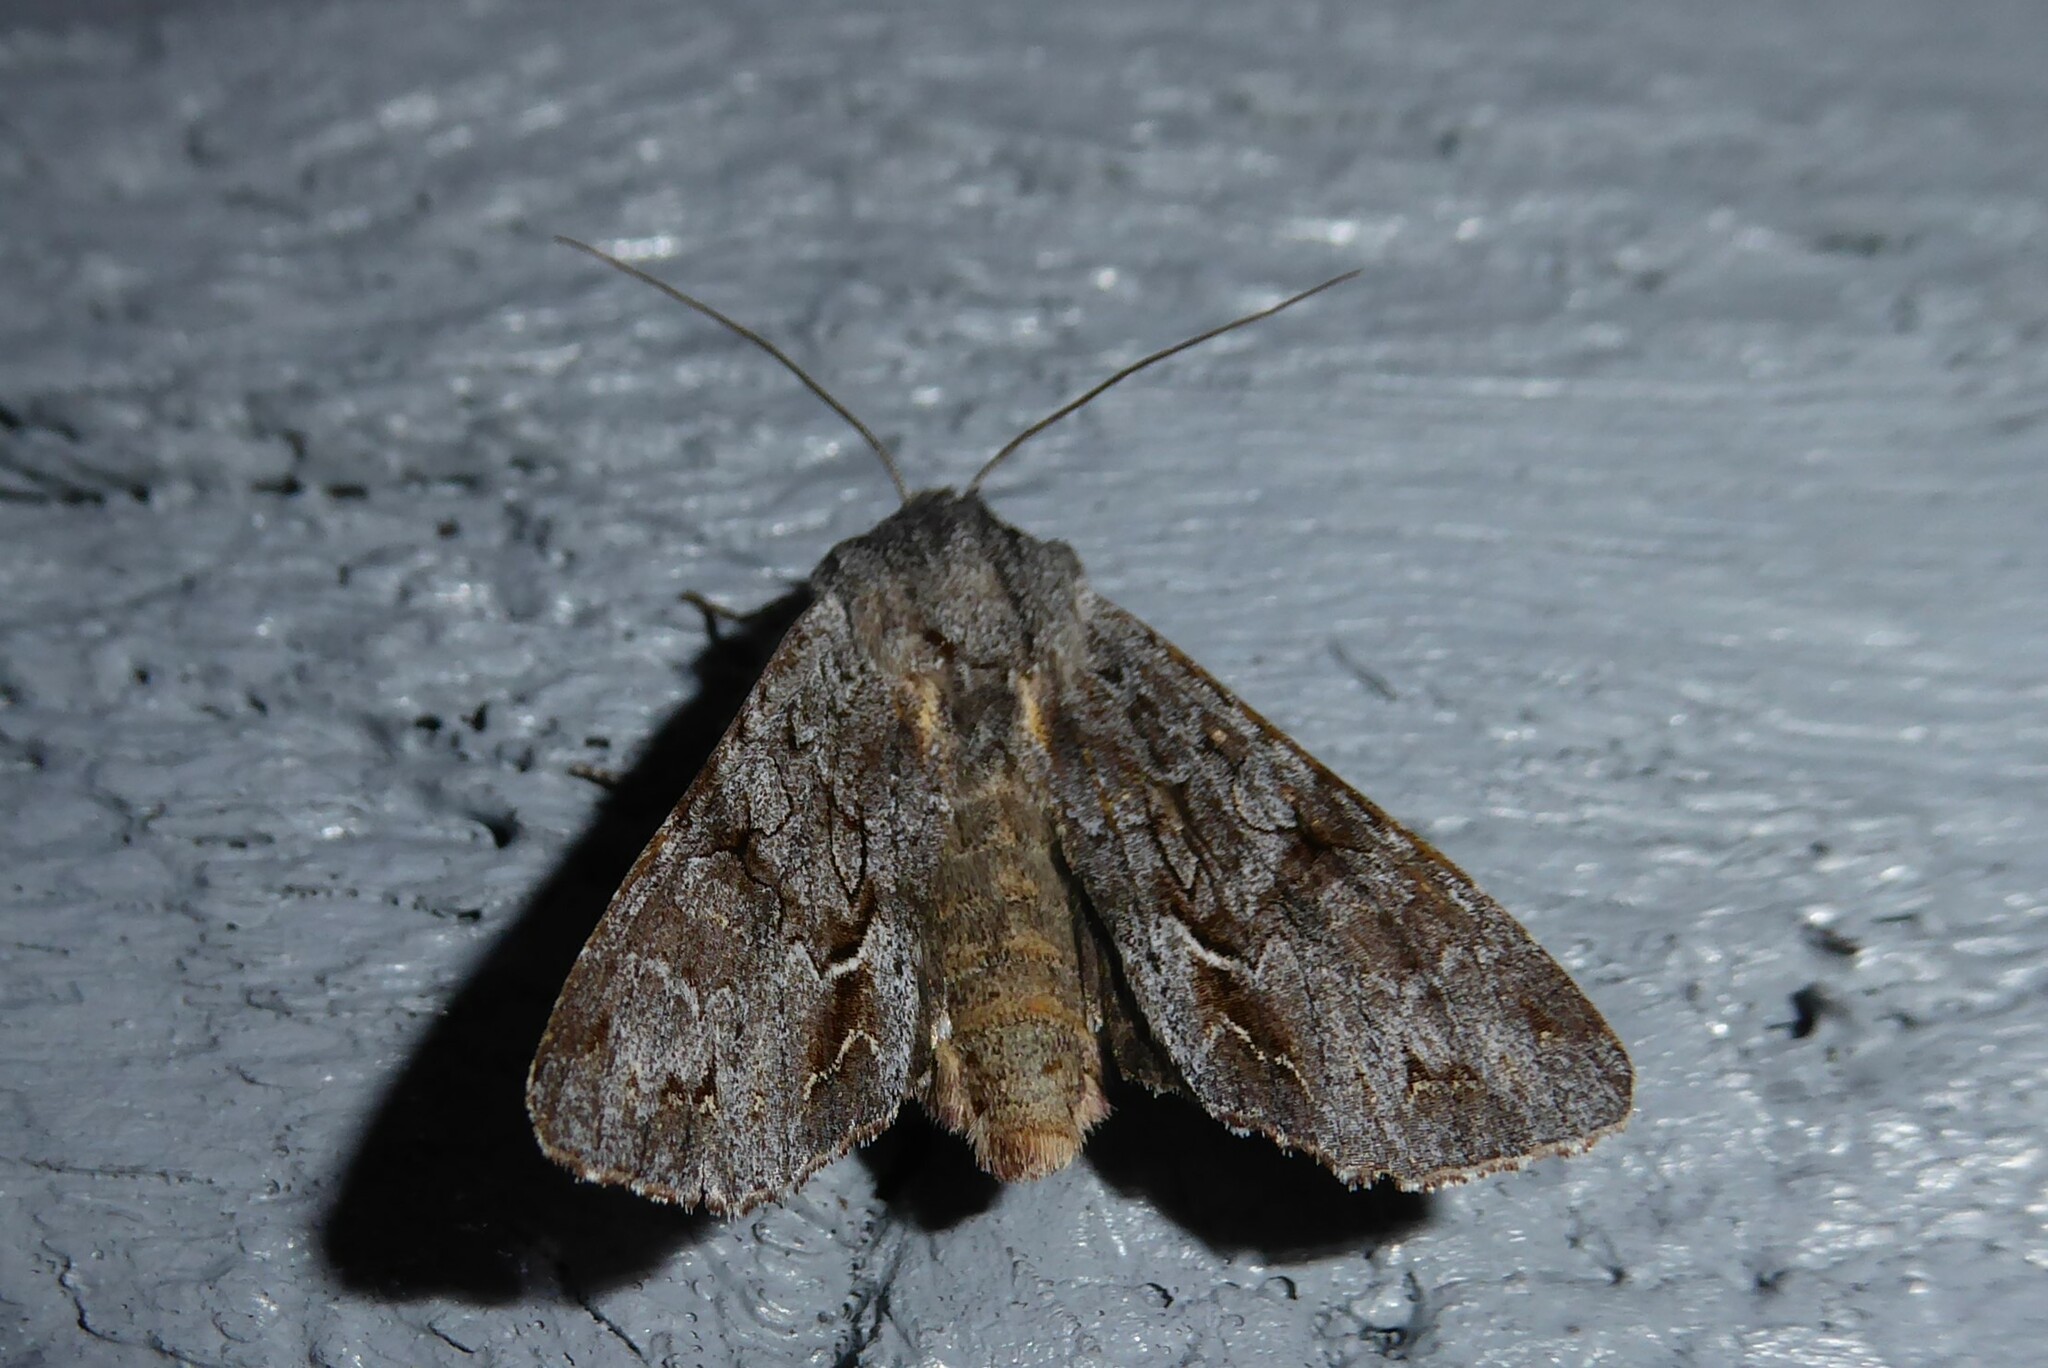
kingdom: Animalia
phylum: Arthropoda
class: Insecta
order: Lepidoptera
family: Noctuidae
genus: Ichneutica
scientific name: Ichneutica
